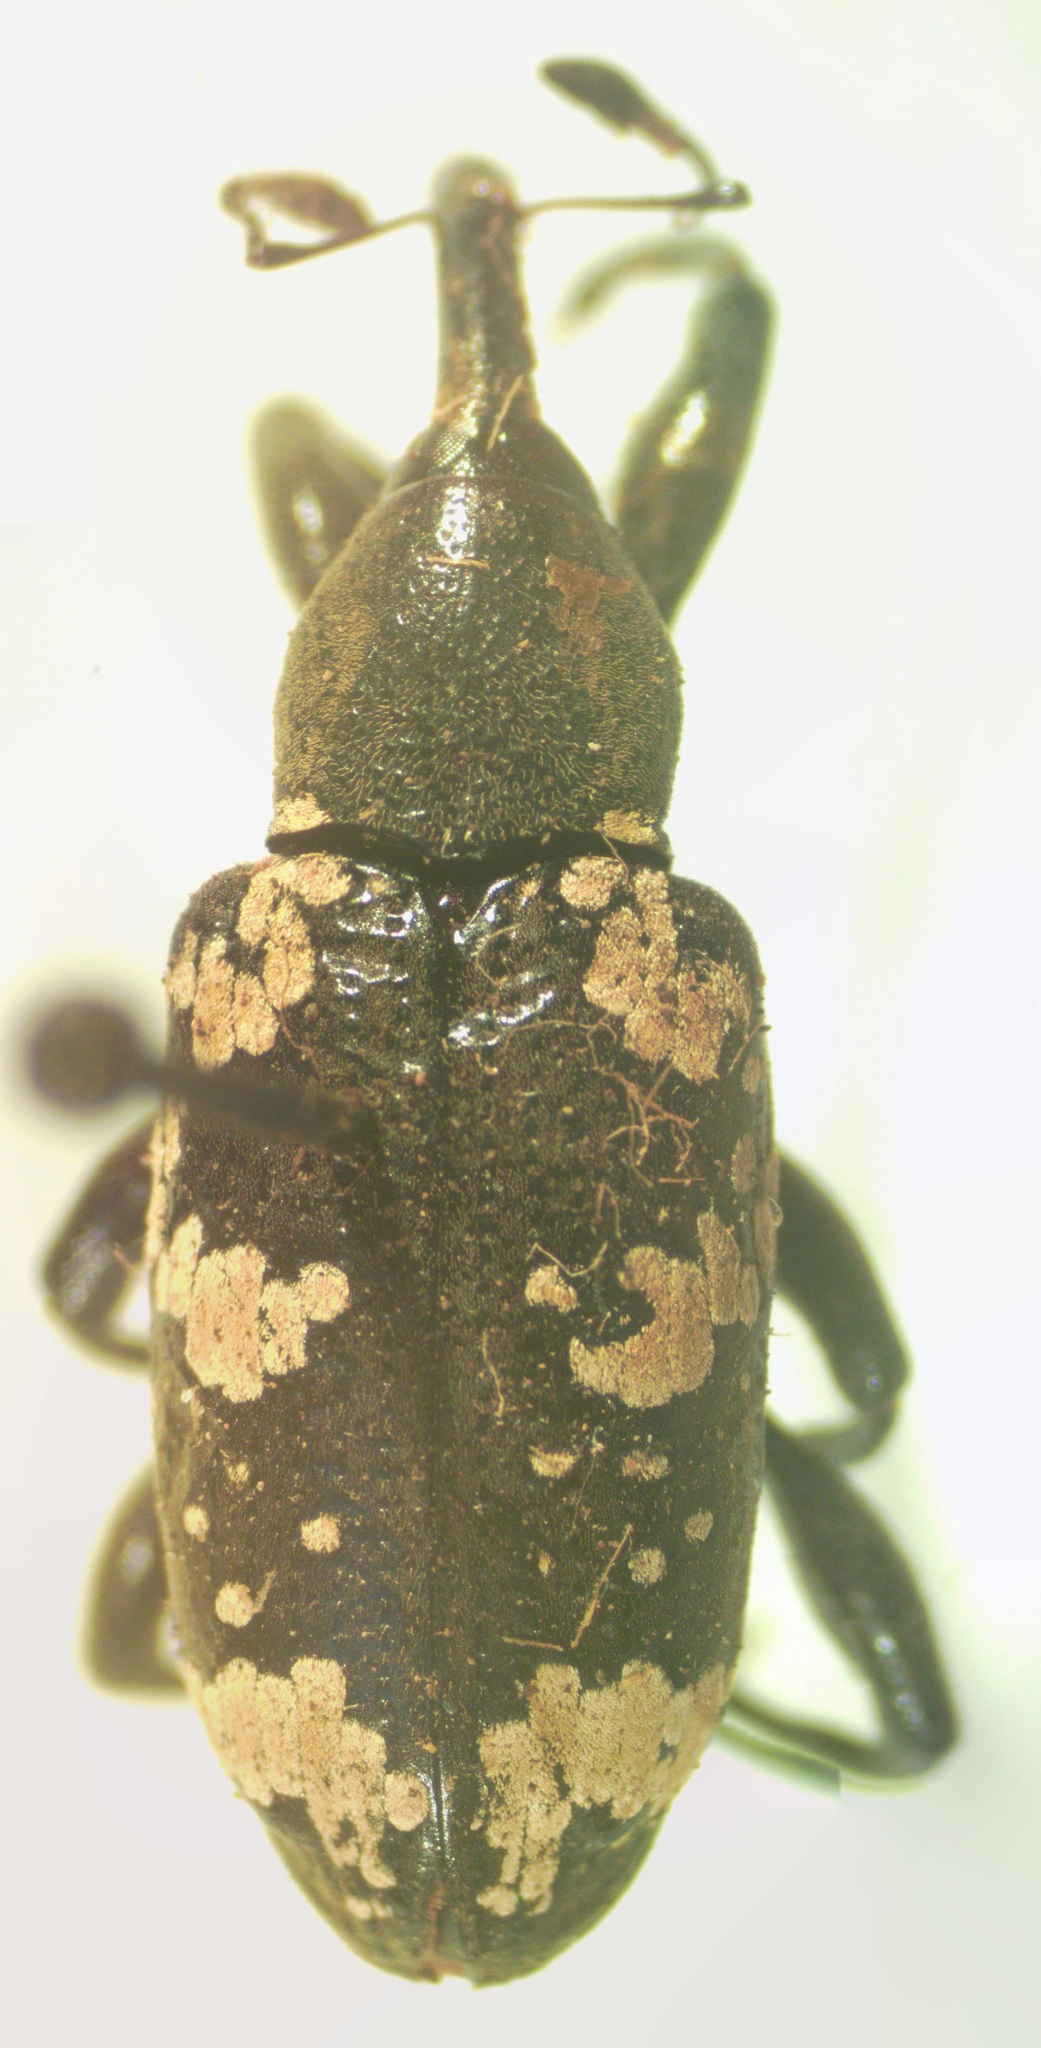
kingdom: Animalia
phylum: Arthropoda
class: Insecta
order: Coleoptera
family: Curculionidae
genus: Heilipus
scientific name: Heilipus
